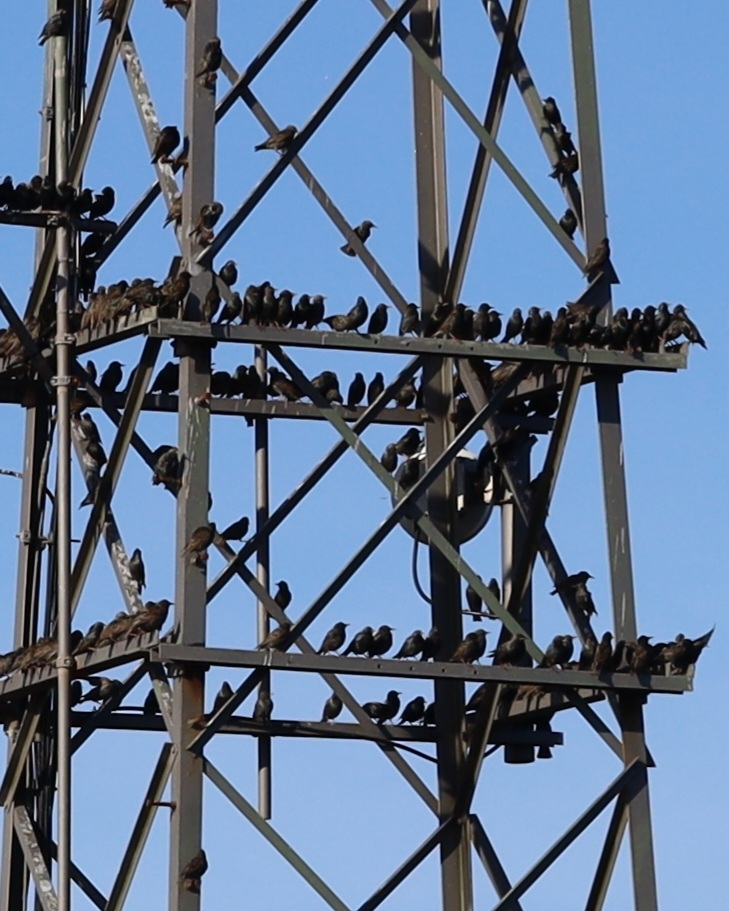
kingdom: Animalia
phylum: Chordata
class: Aves
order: Passeriformes
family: Sturnidae
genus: Sturnus
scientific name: Sturnus vulgaris
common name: Common starling
